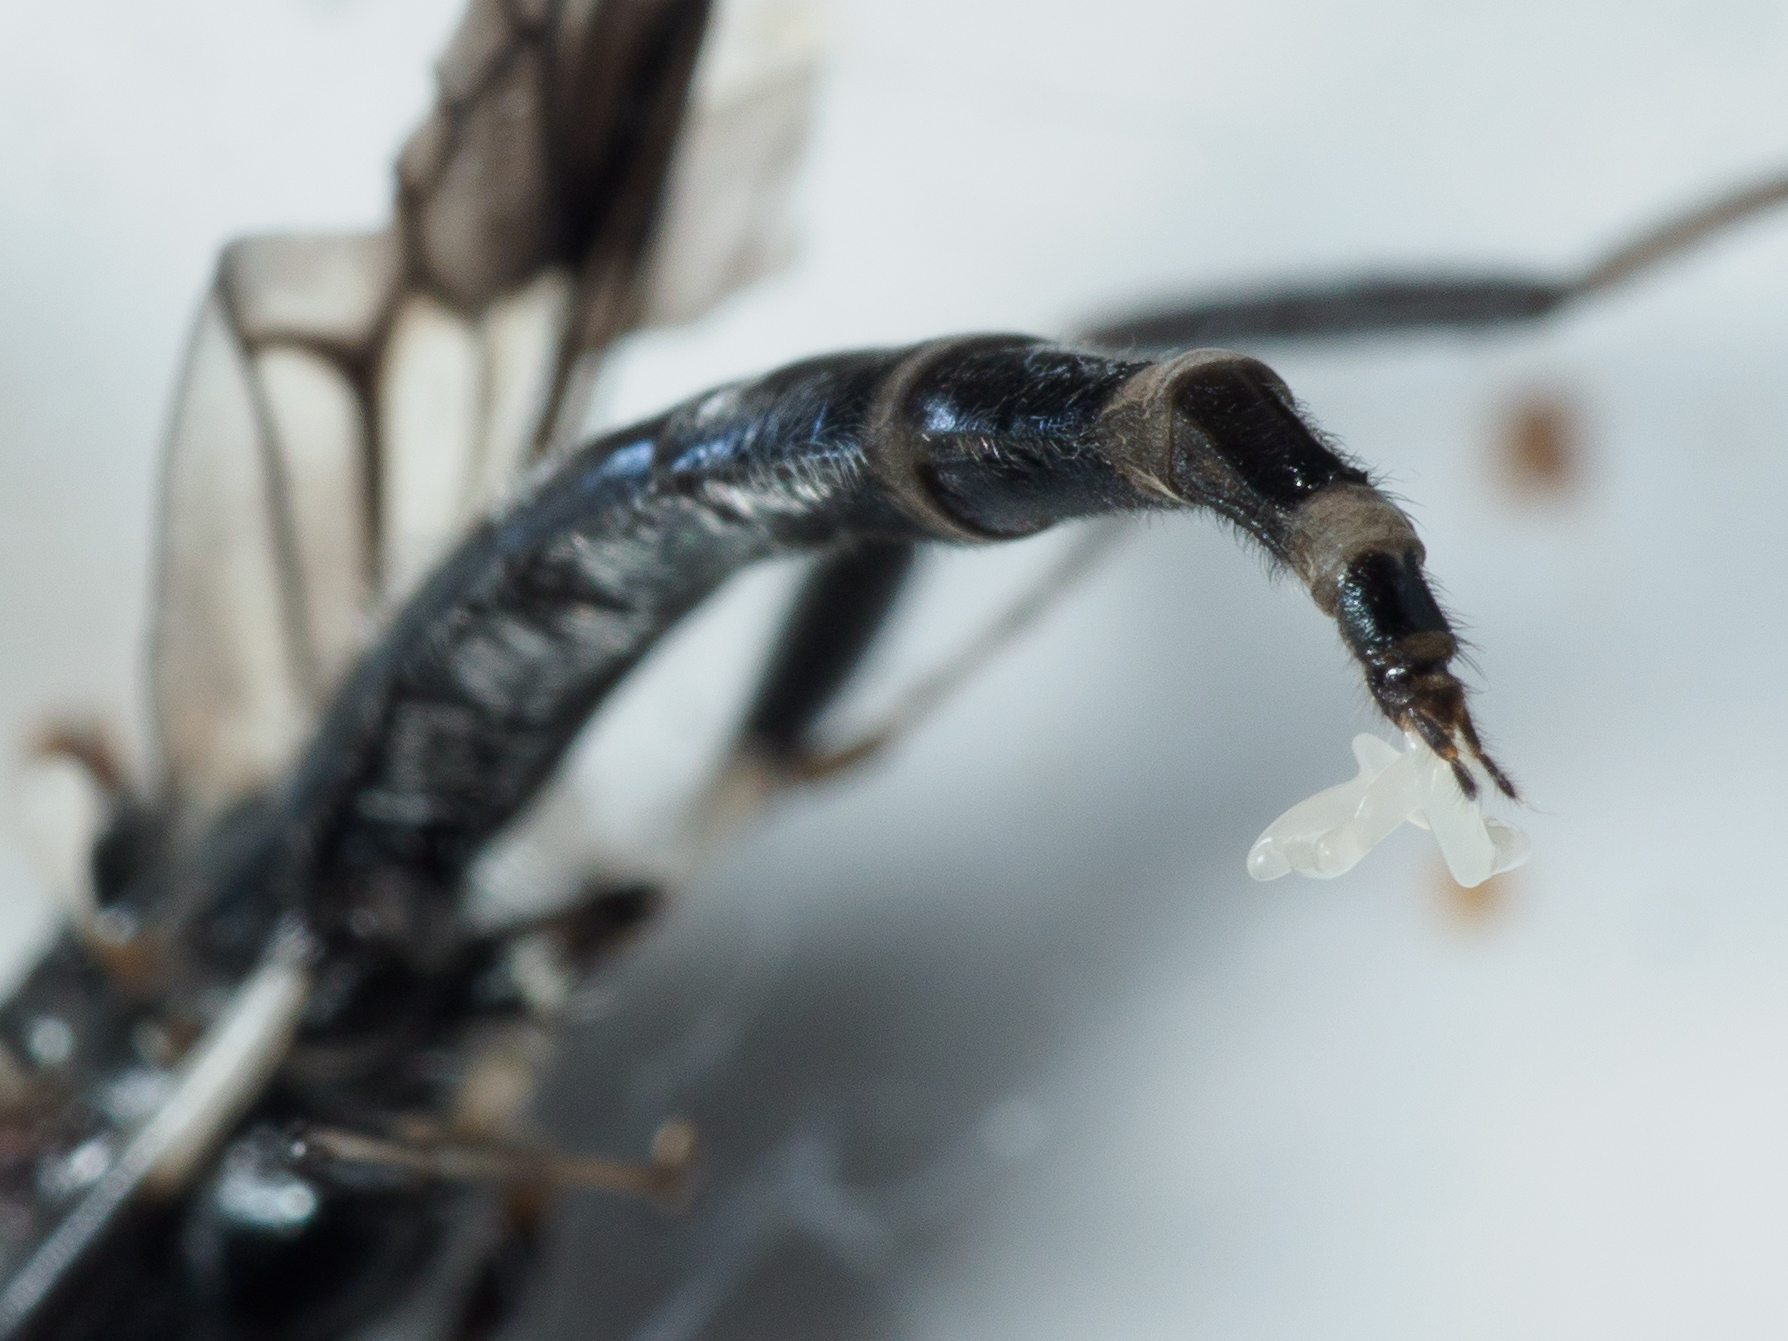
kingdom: Animalia
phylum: Arthropoda
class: Insecta
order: Diptera
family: Stratiomyidae
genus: Exaireta
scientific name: Exaireta spinigera
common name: Blue soldier fly
